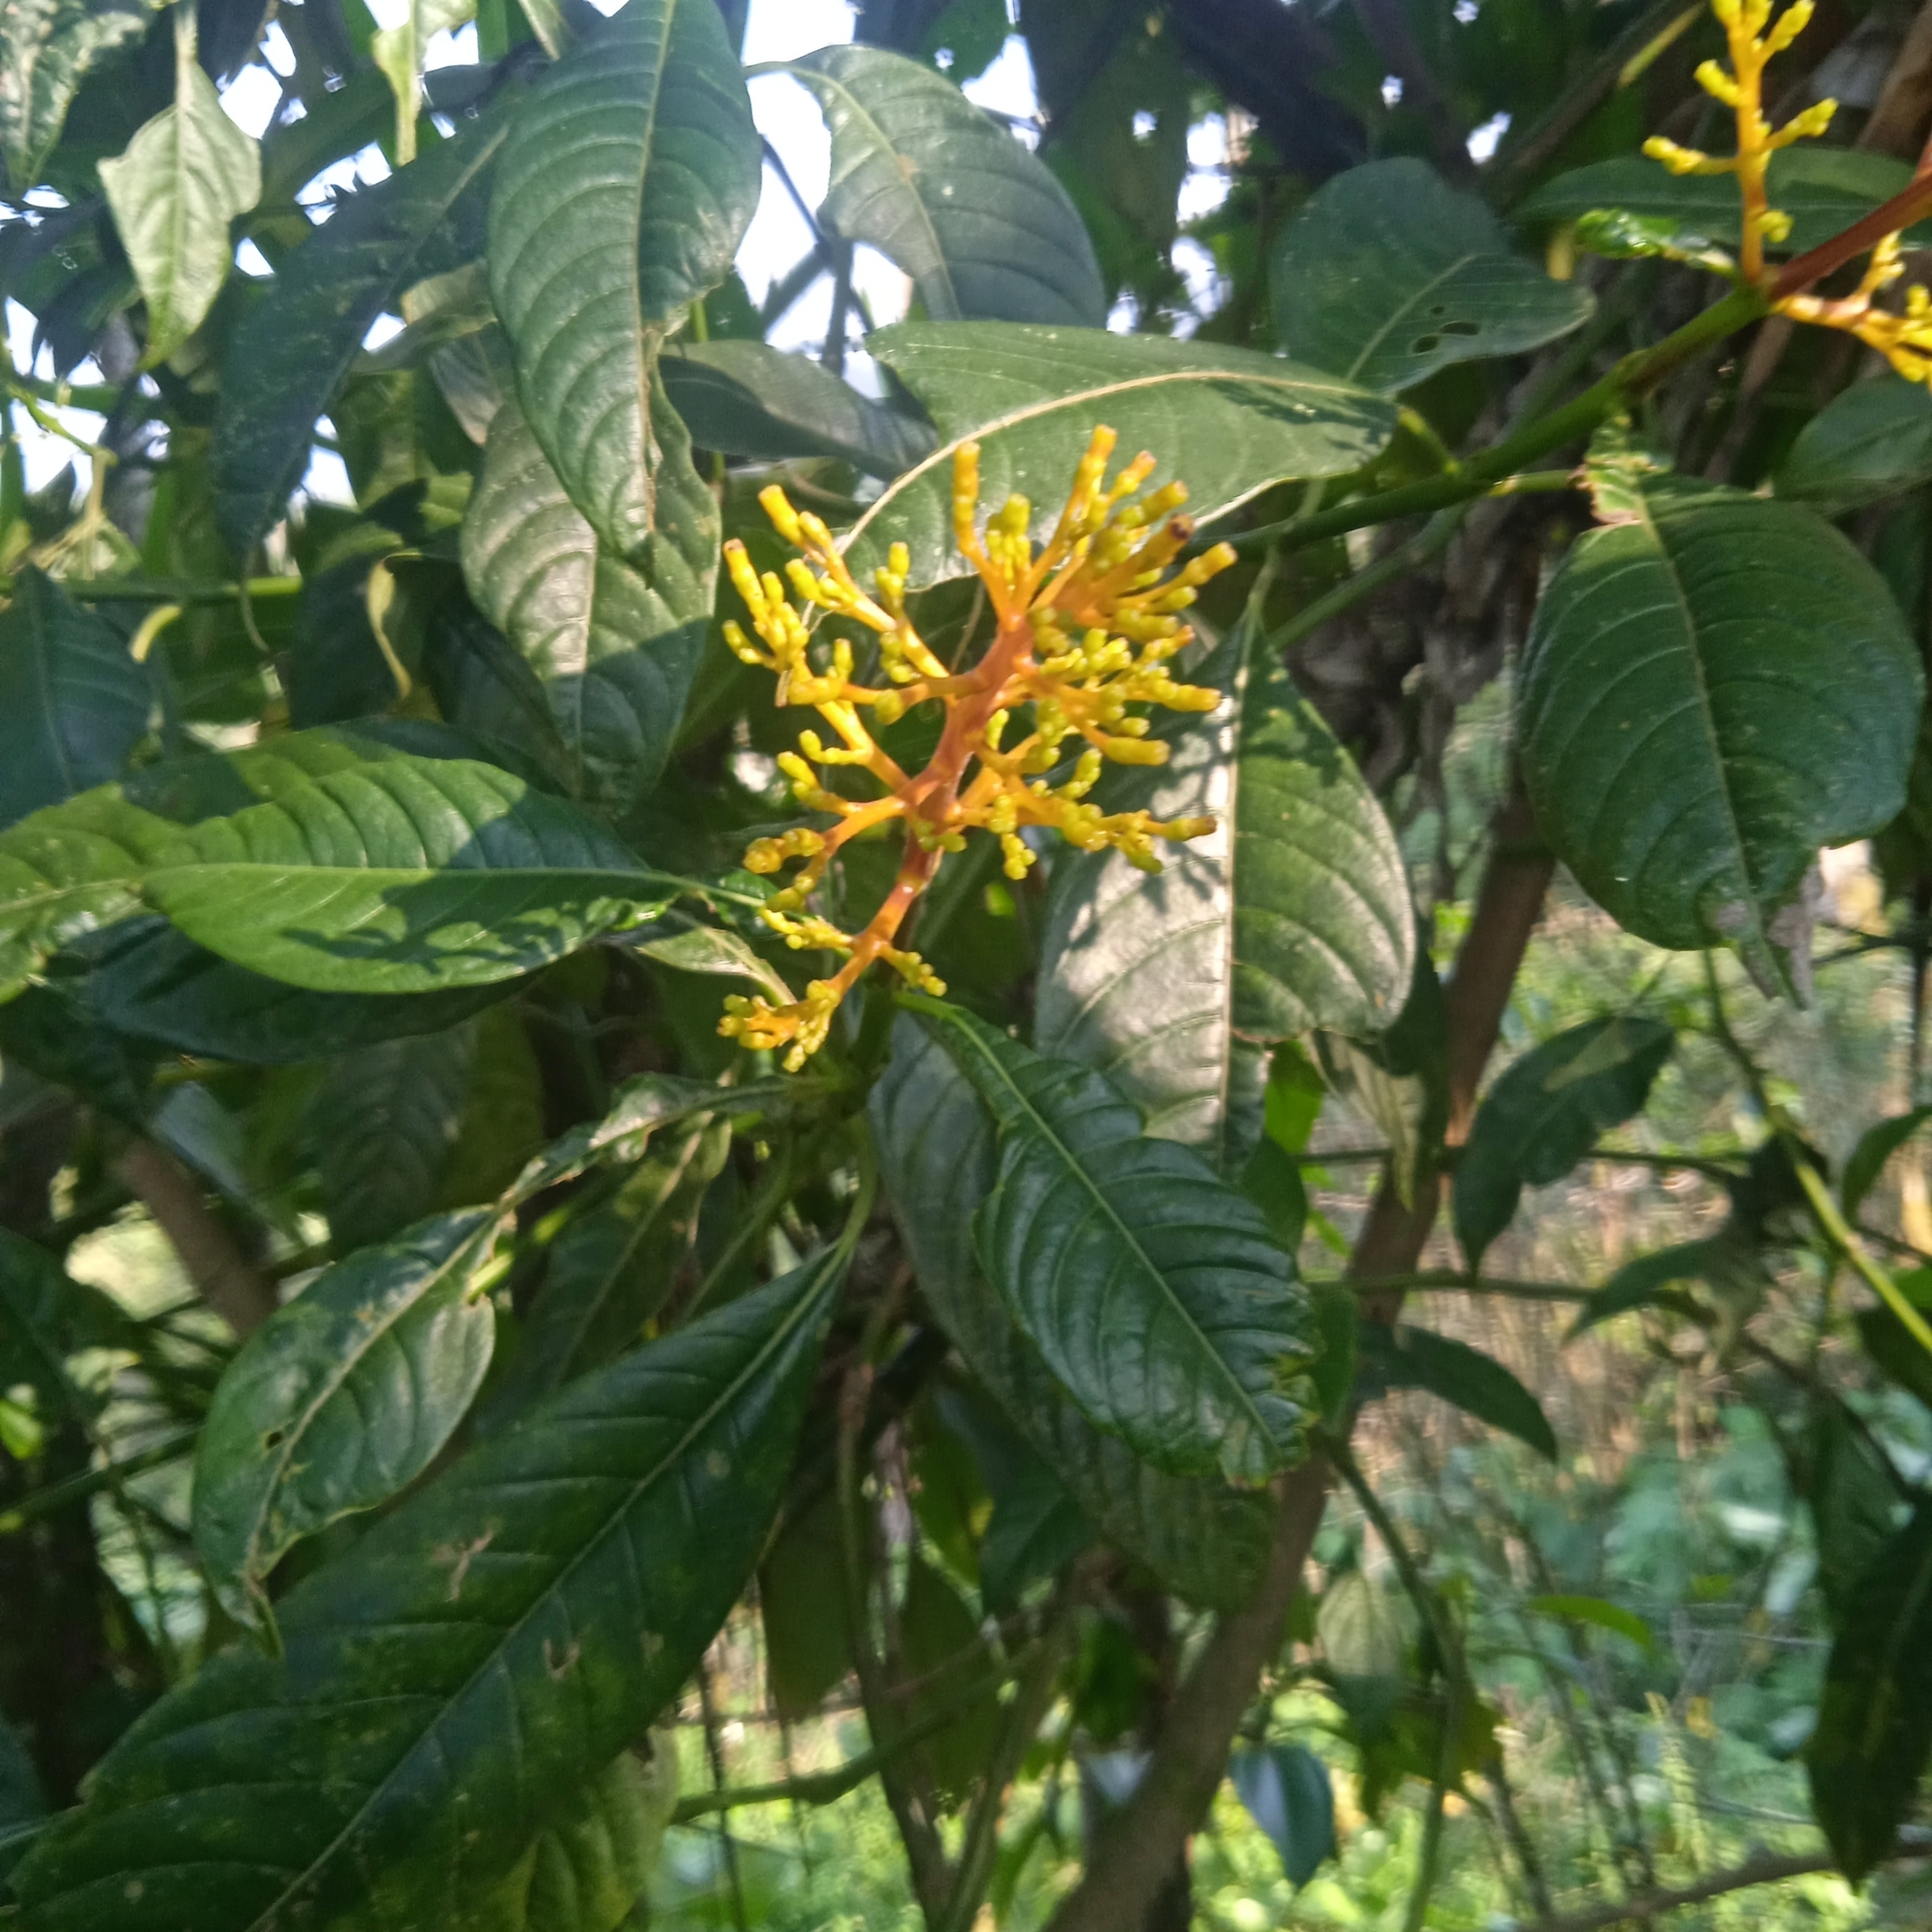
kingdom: Plantae
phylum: Tracheophyta
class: Magnoliopsida
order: Gentianales
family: Rubiaceae
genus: Palicourea
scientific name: Palicourea padifolia
